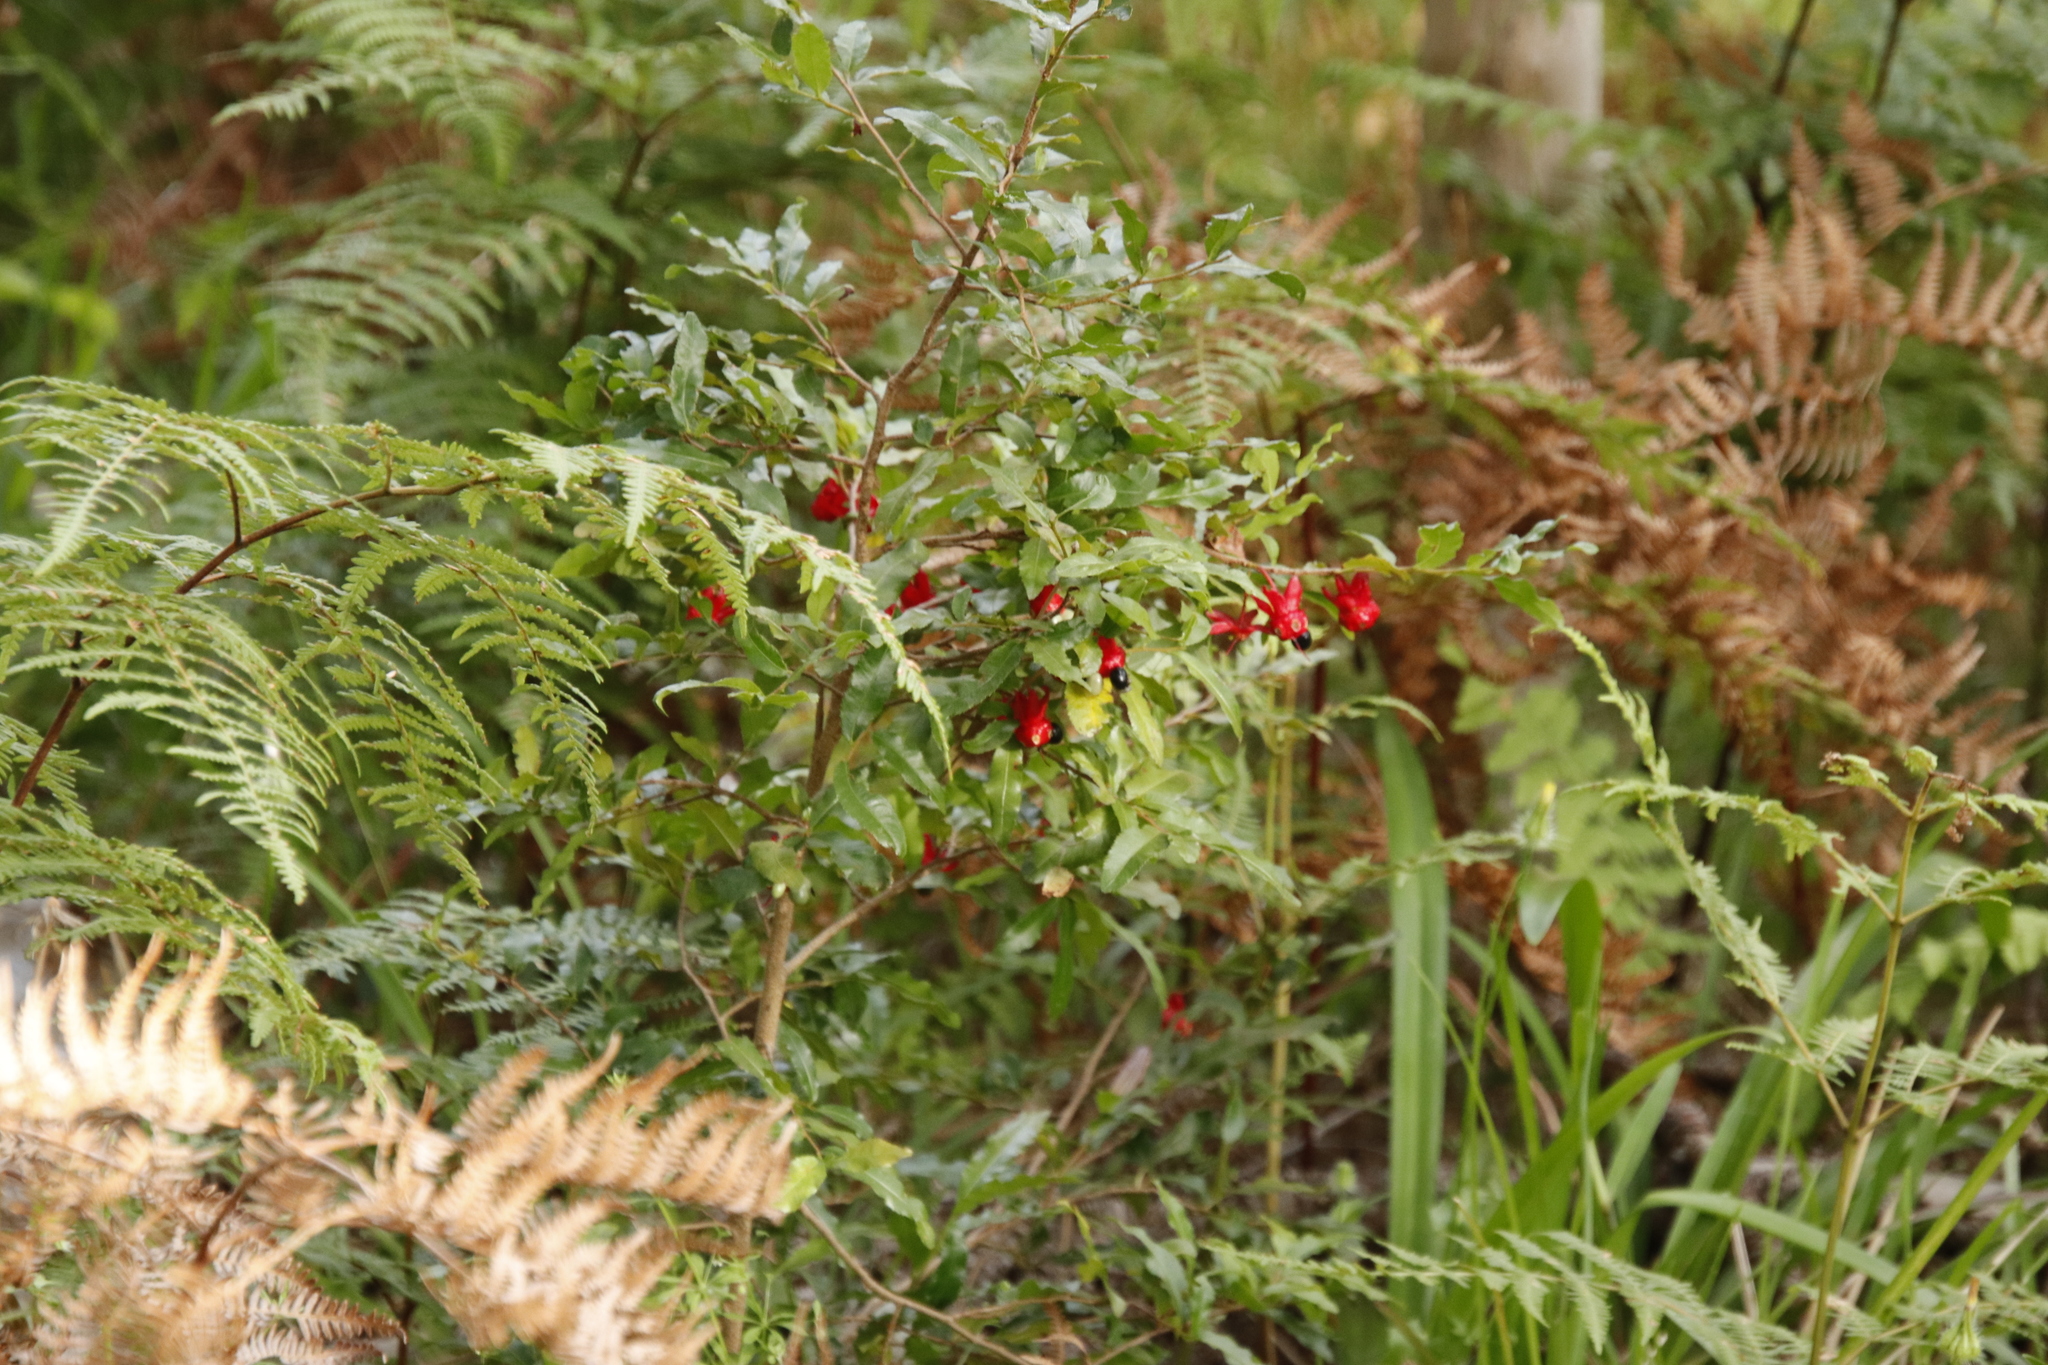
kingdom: Plantae
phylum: Tracheophyta
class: Magnoliopsida
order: Malpighiales
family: Ochnaceae
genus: Ochna
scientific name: Ochna serrulata
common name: Mickey mouse plant
